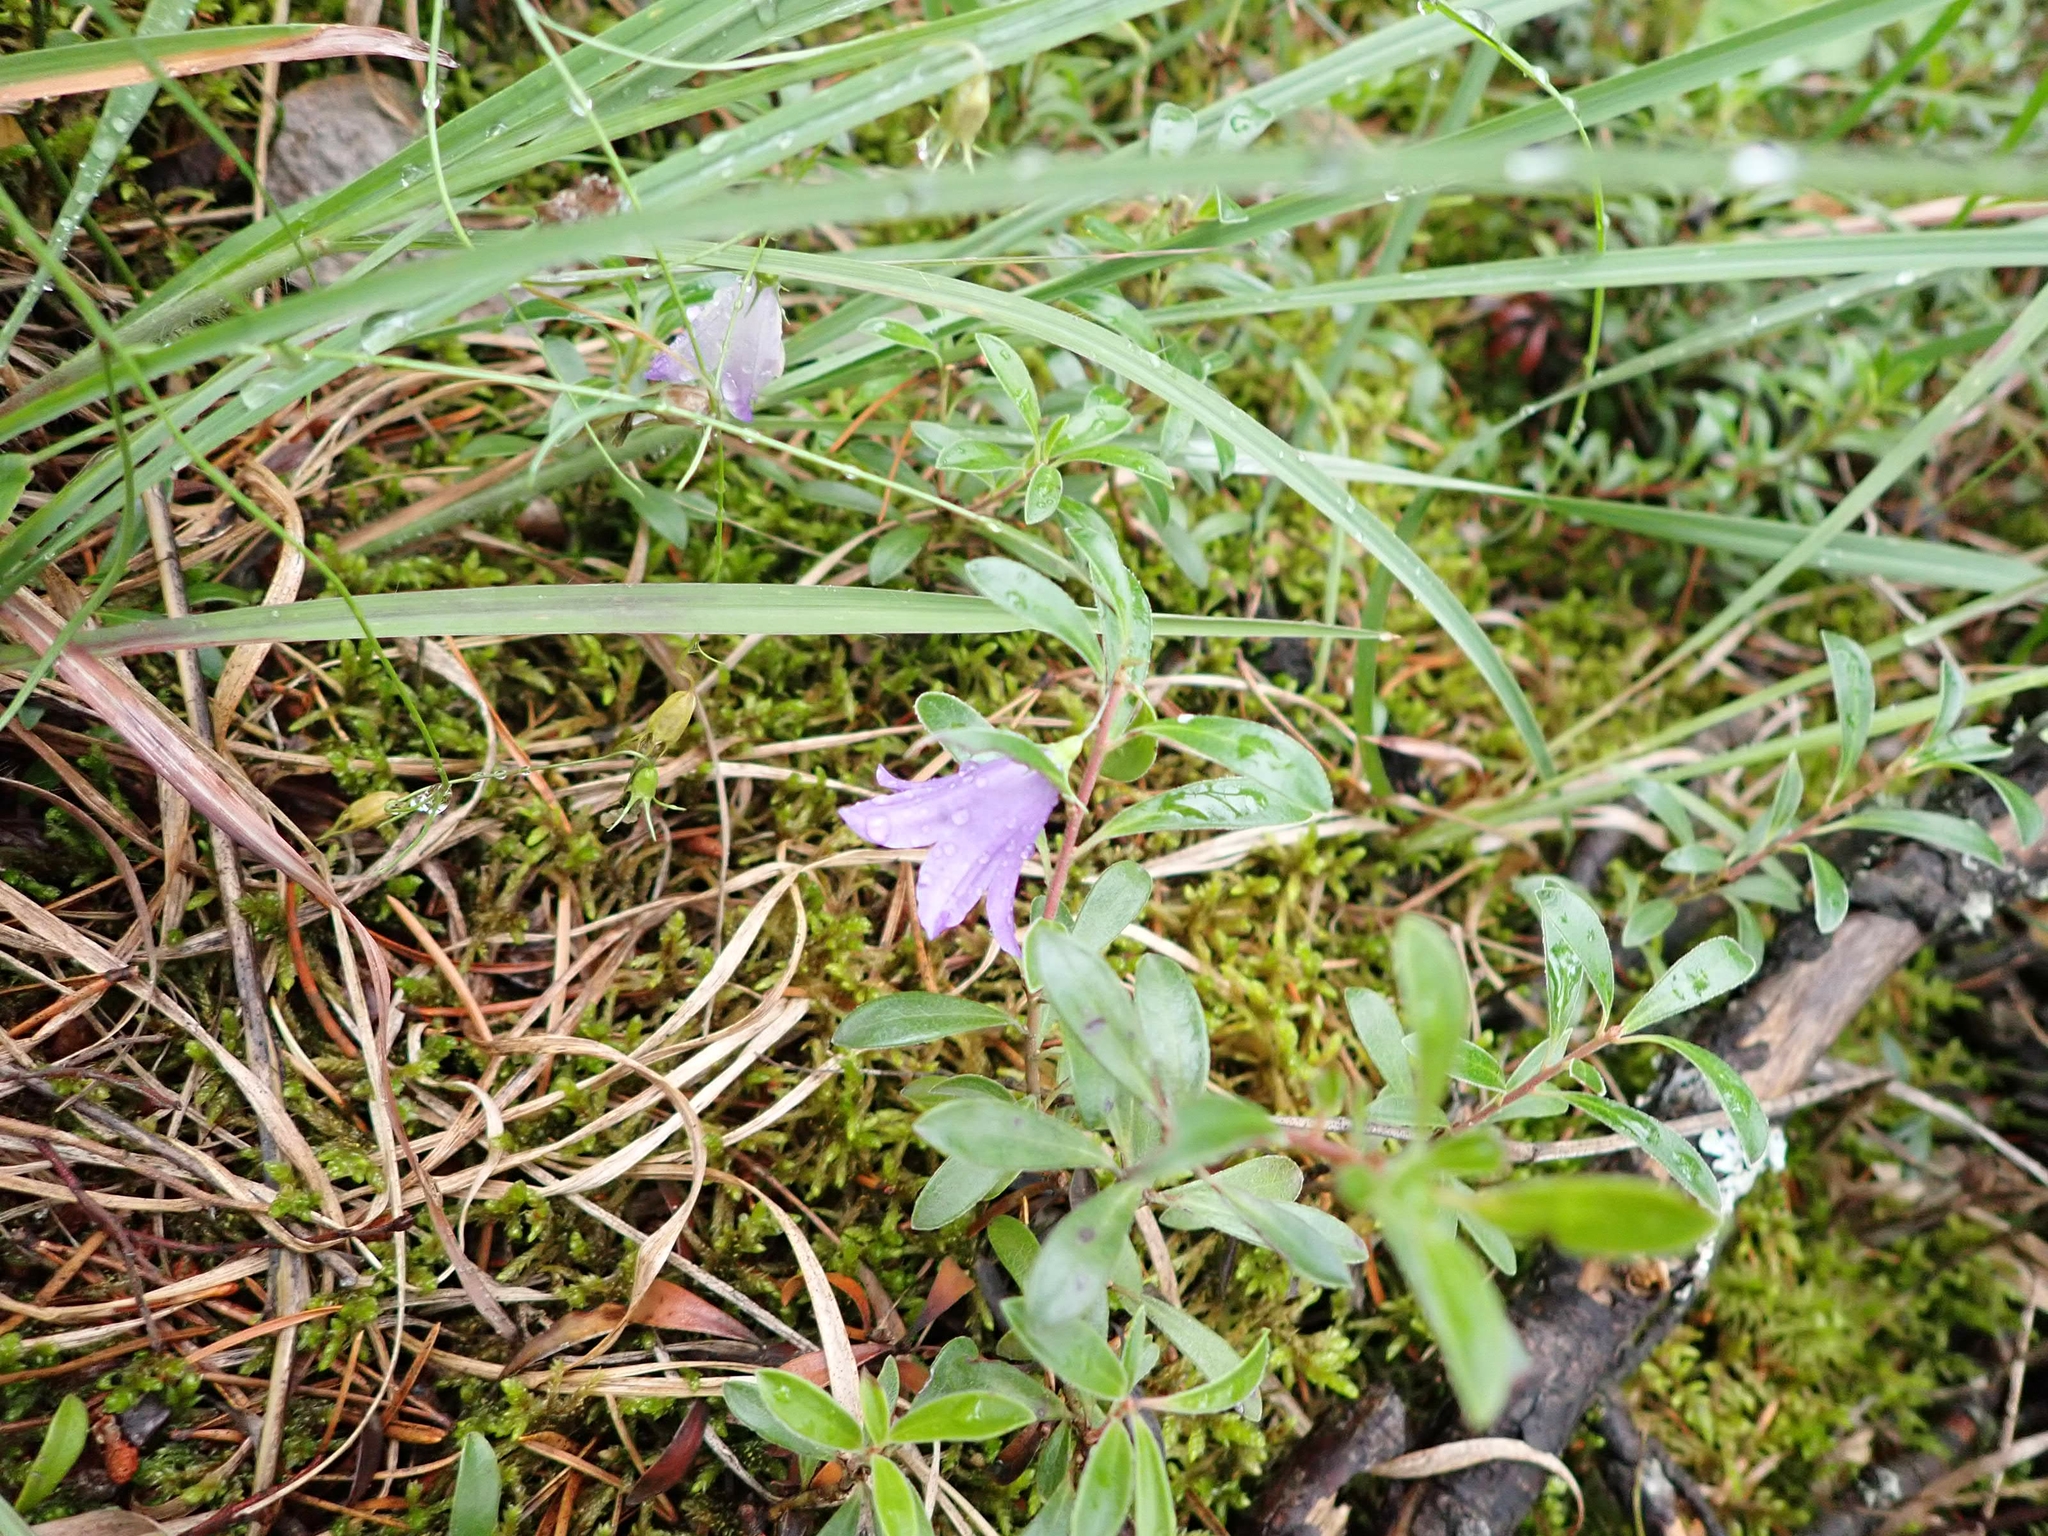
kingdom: Plantae
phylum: Tracheophyta
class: Magnoliopsida
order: Asterales
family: Campanulaceae
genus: Campanula
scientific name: Campanula petiolata
